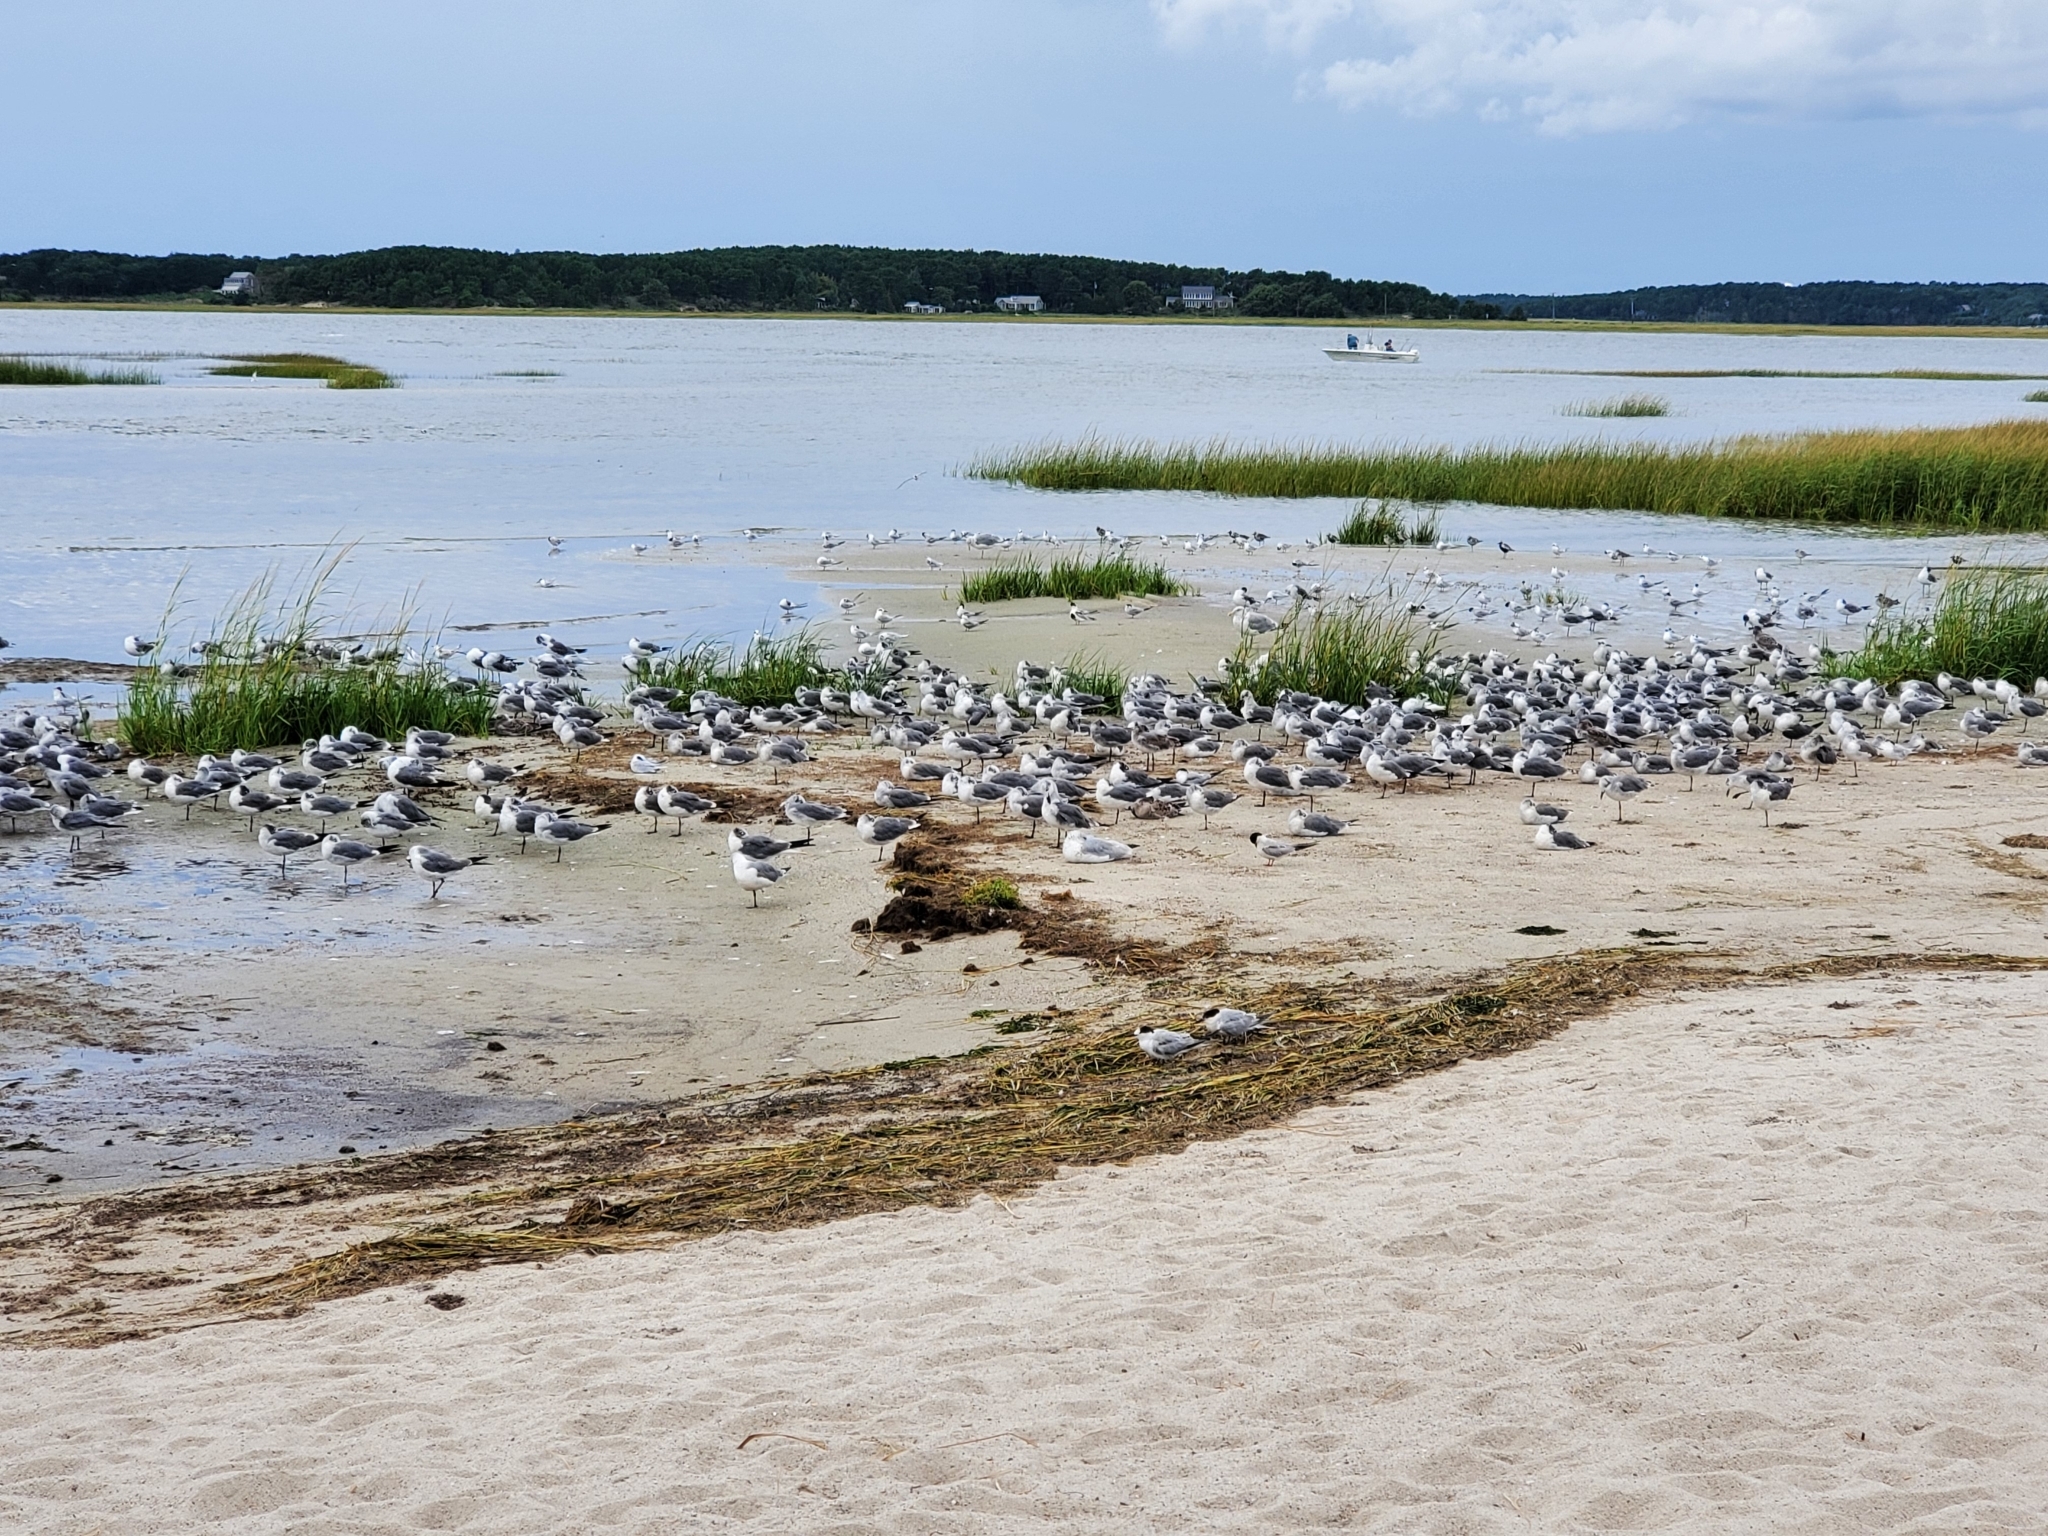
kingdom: Animalia
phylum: Chordata
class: Aves
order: Charadriiformes
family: Laridae
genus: Sterna
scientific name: Sterna forsteri
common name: Forster's tern
